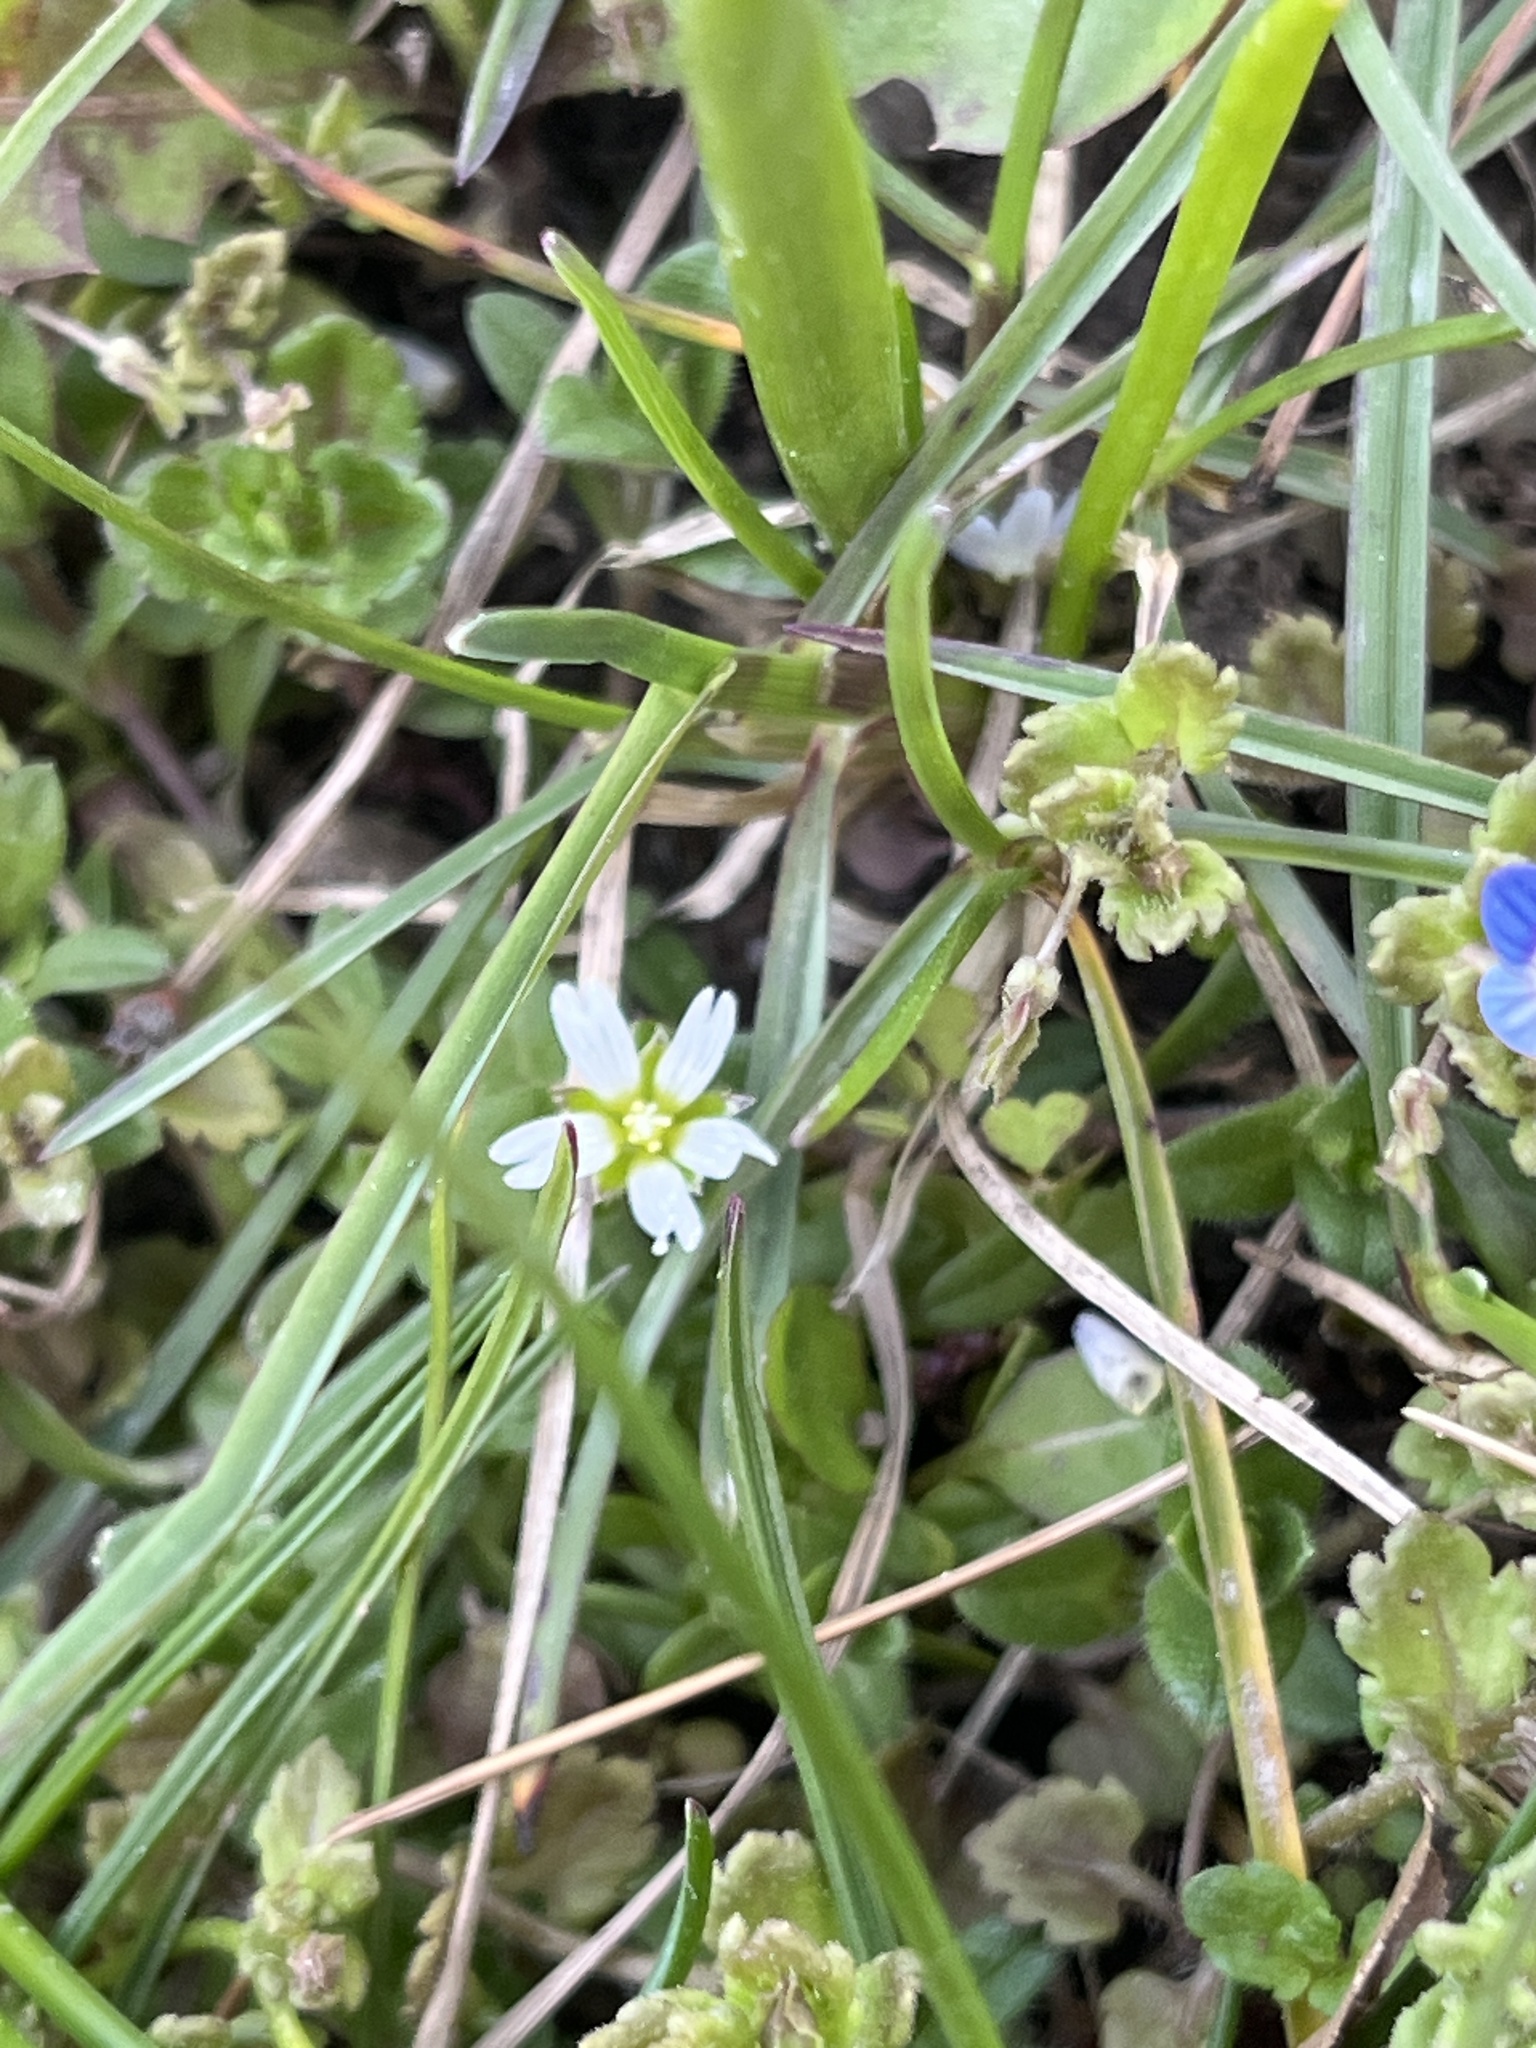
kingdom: Plantae
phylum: Tracheophyta
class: Magnoliopsida
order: Caryophyllales
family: Caryophyllaceae
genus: Cerastium
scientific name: Cerastium fontanum
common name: Common mouse-ear
